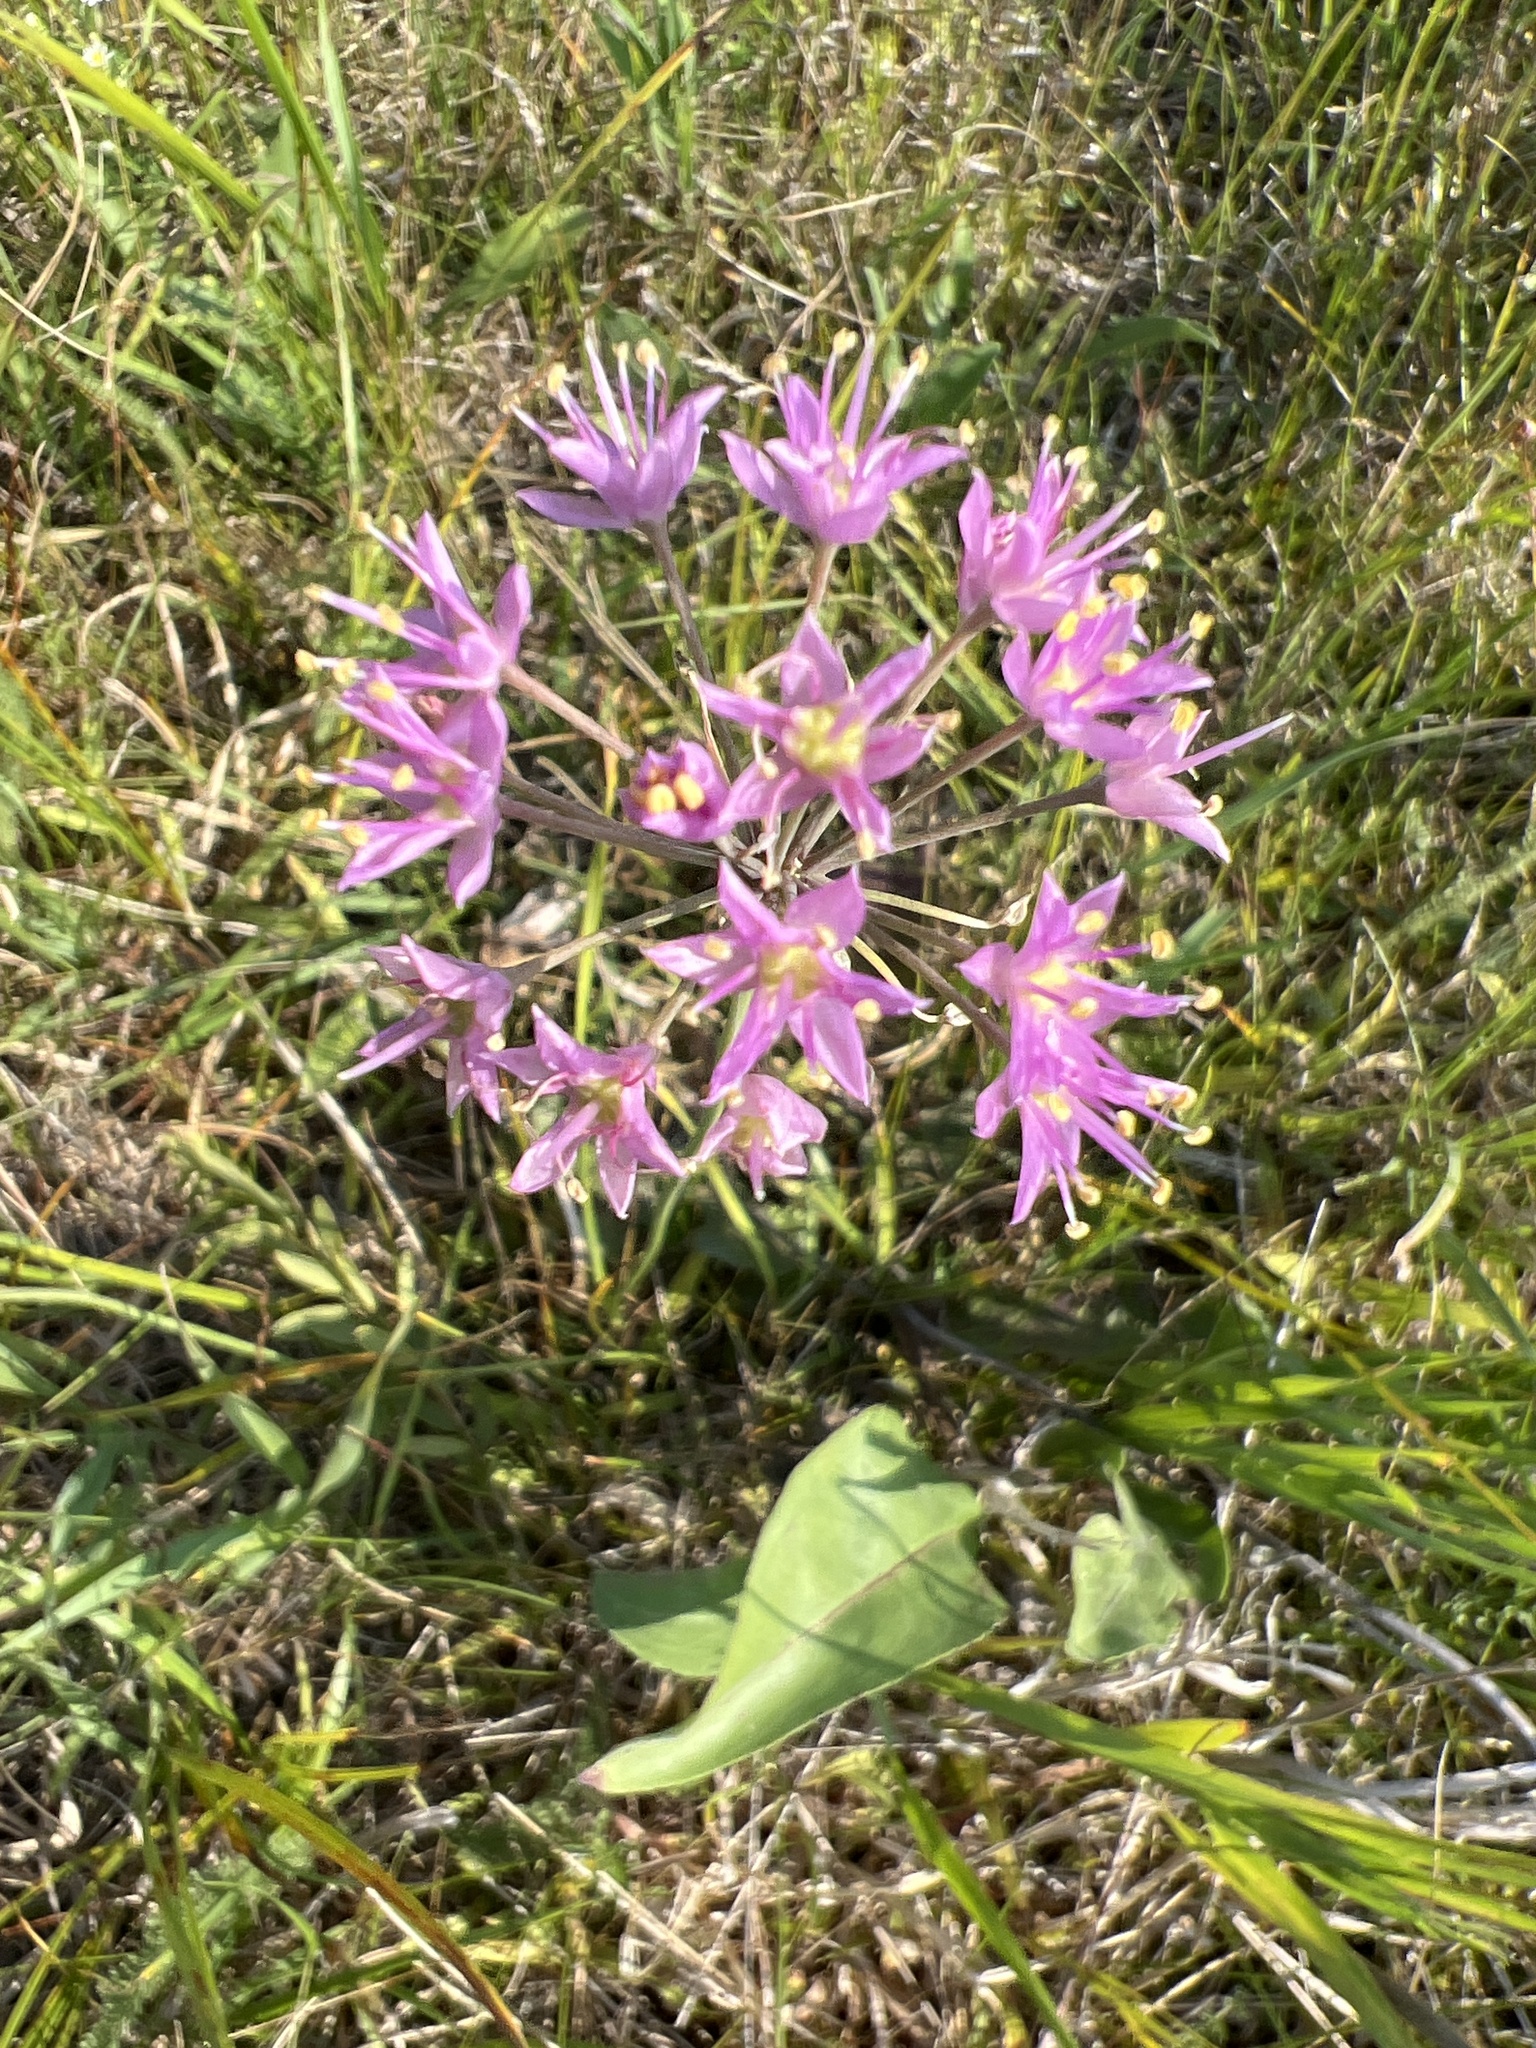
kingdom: Plantae
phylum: Tracheophyta
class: Liliopsida
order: Asparagales
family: Amaryllidaceae
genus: Allium
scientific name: Allium stellatum
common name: Autumn onion
